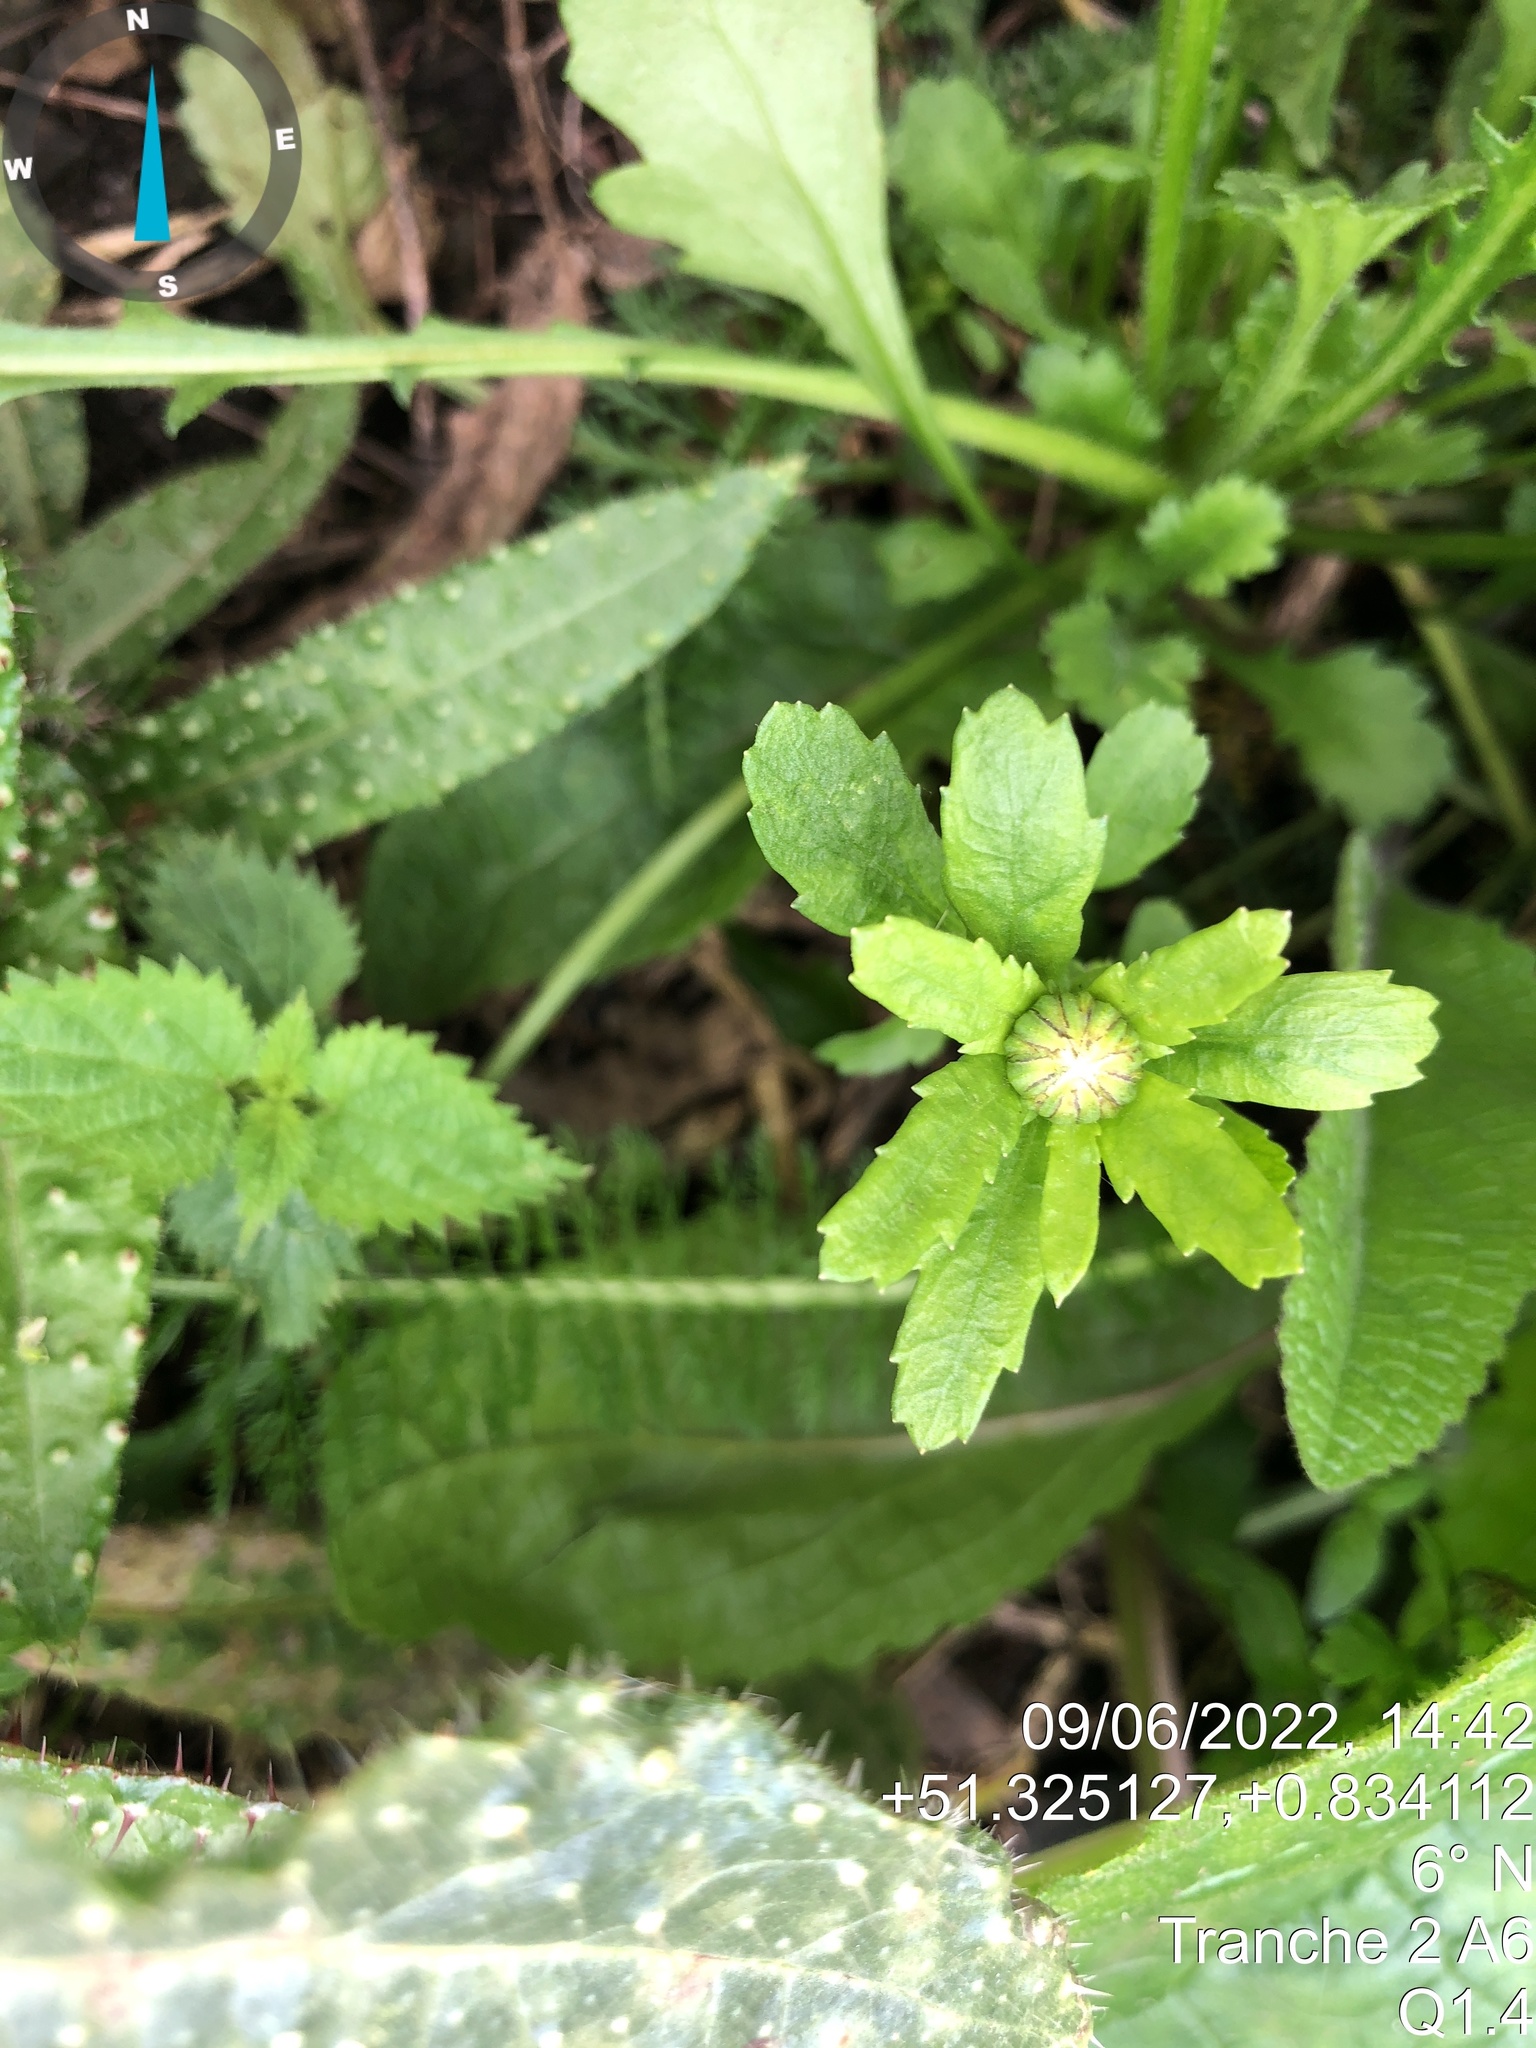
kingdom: Plantae
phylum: Tracheophyta
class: Magnoliopsida
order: Asterales
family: Asteraceae
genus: Leucanthemum
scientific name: Leucanthemum vulgare
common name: Oxeye daisy
